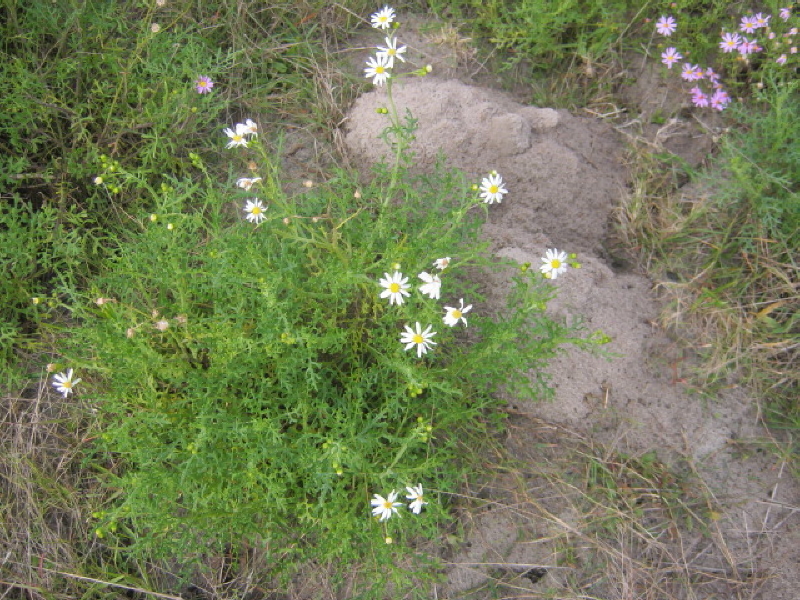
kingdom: Plantae
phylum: Tracheophyta
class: Magnoliopsida
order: Asterales
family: Asteraceae
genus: Senecio
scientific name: Senecio elegans
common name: Purple groundsel
